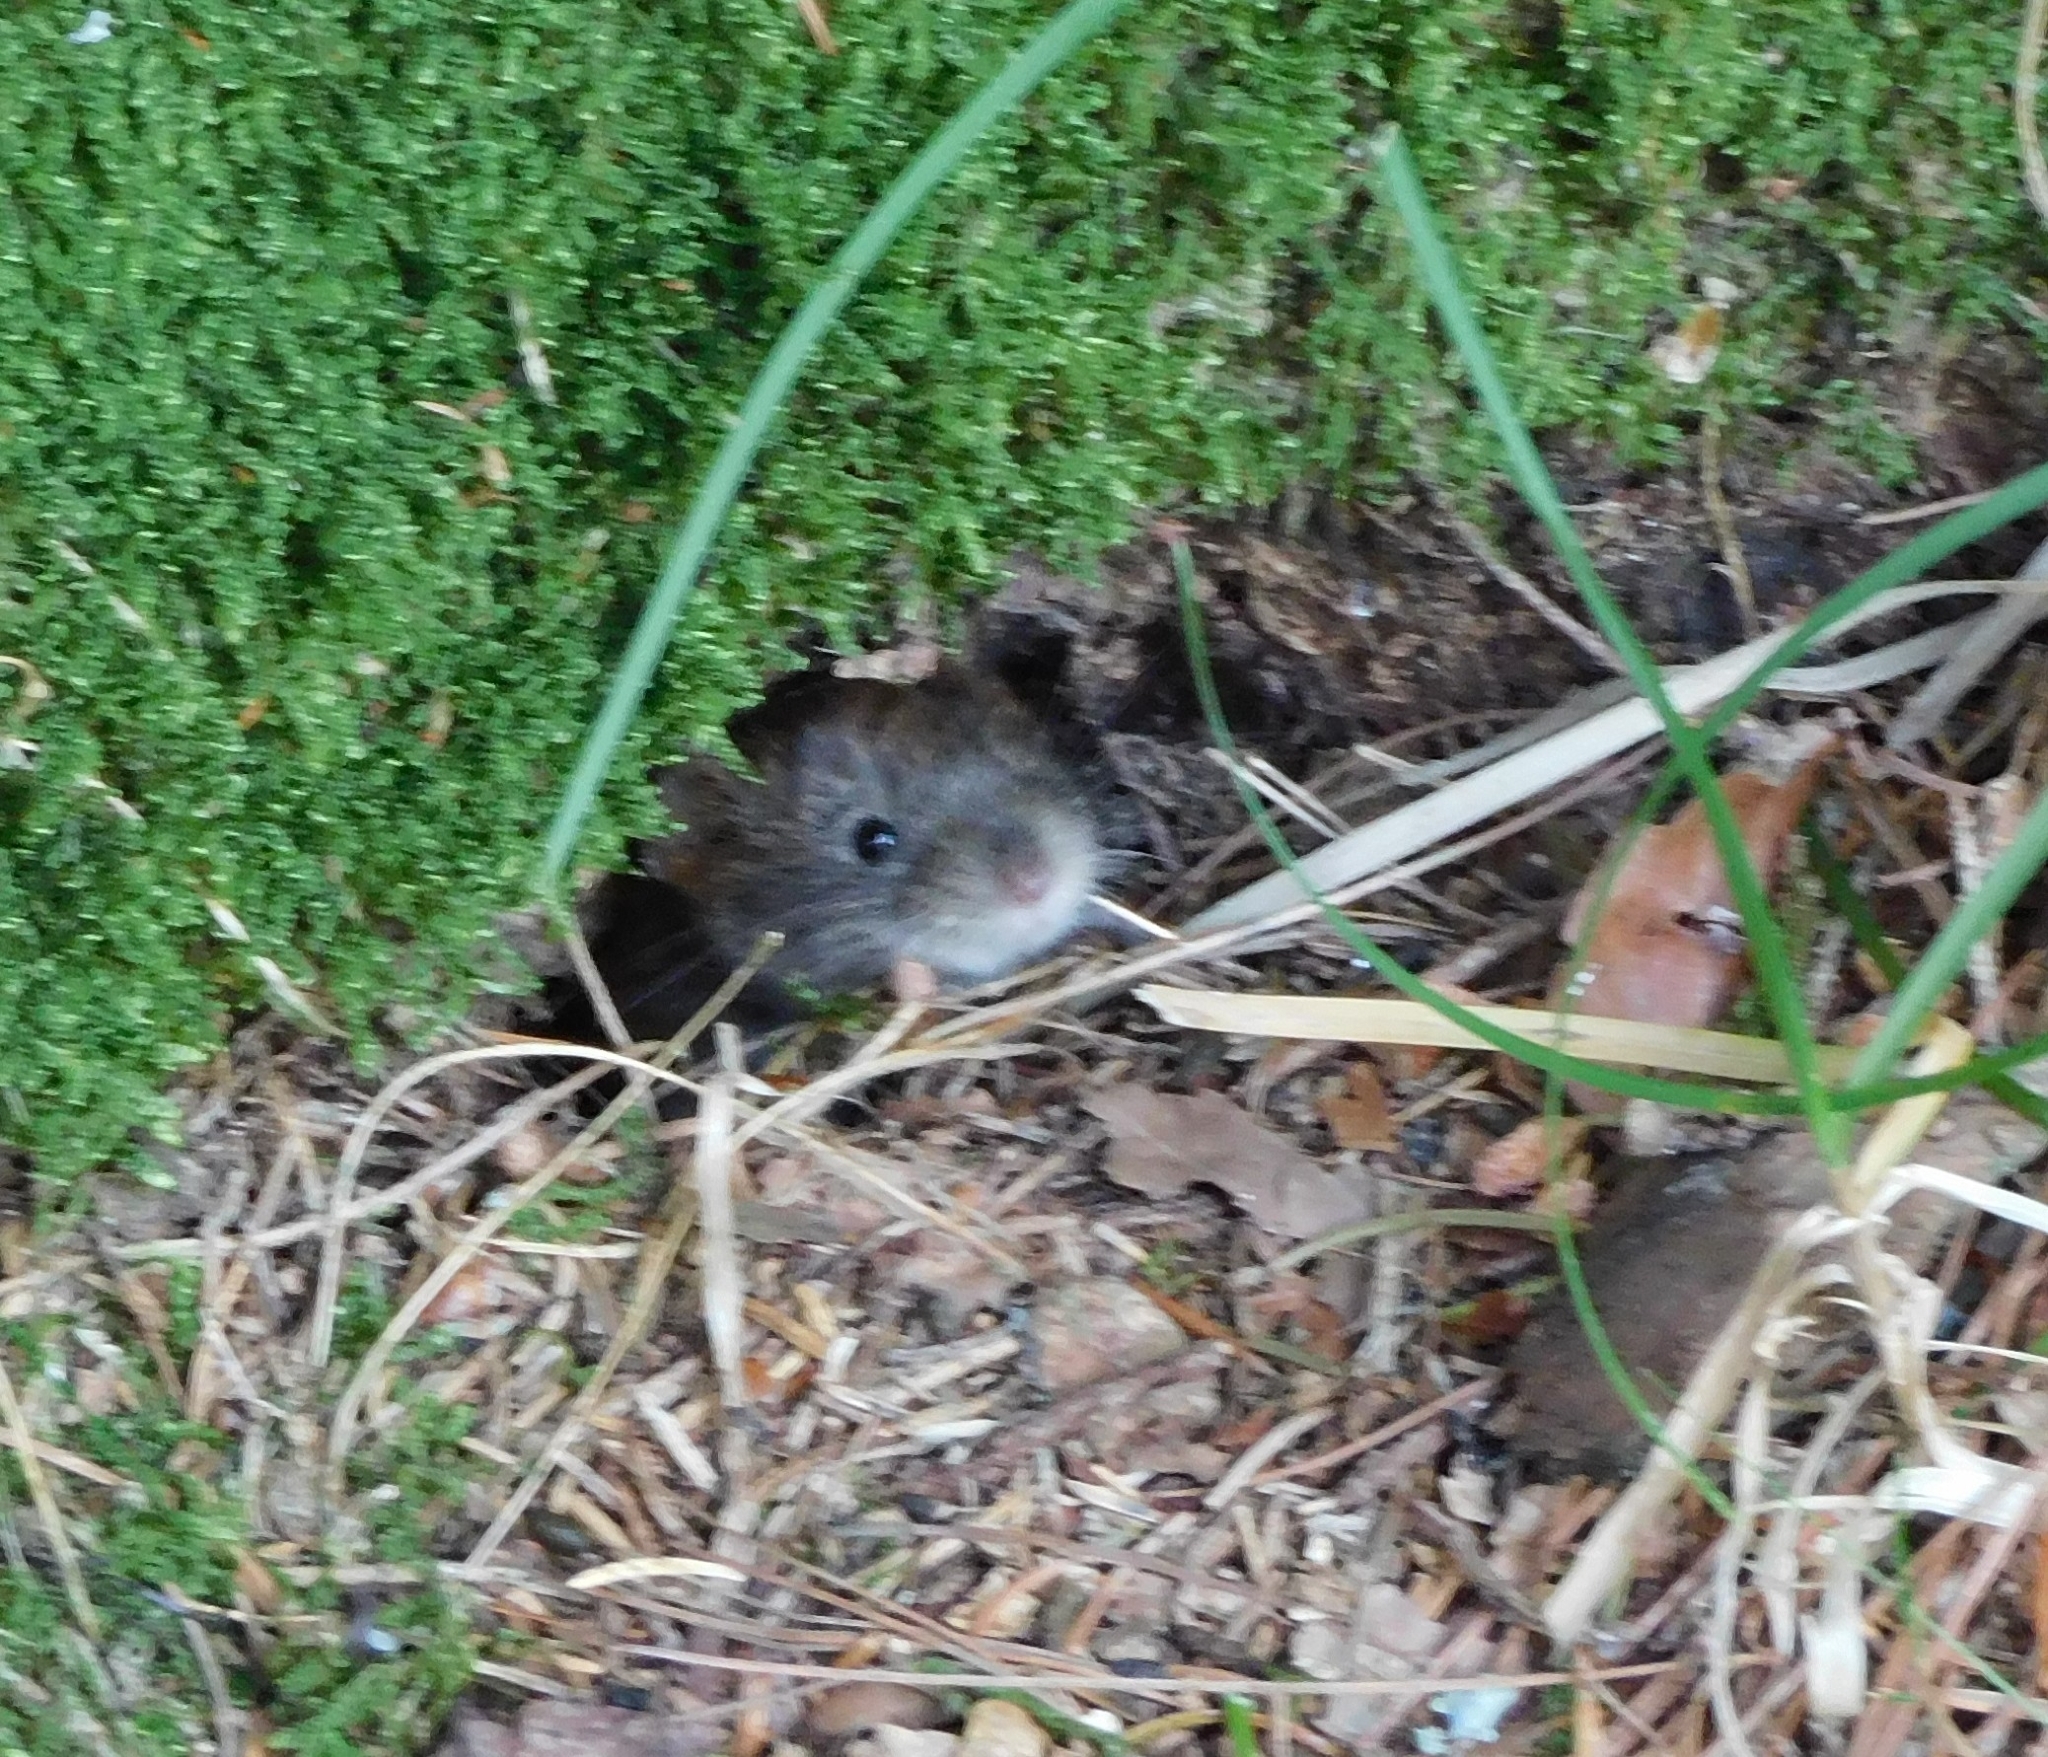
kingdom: Animalia
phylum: Chordata
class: Mammalia
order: Rodentia
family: Cricetidae
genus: Myodes
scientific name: Myodes glareolus
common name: Bank vole
